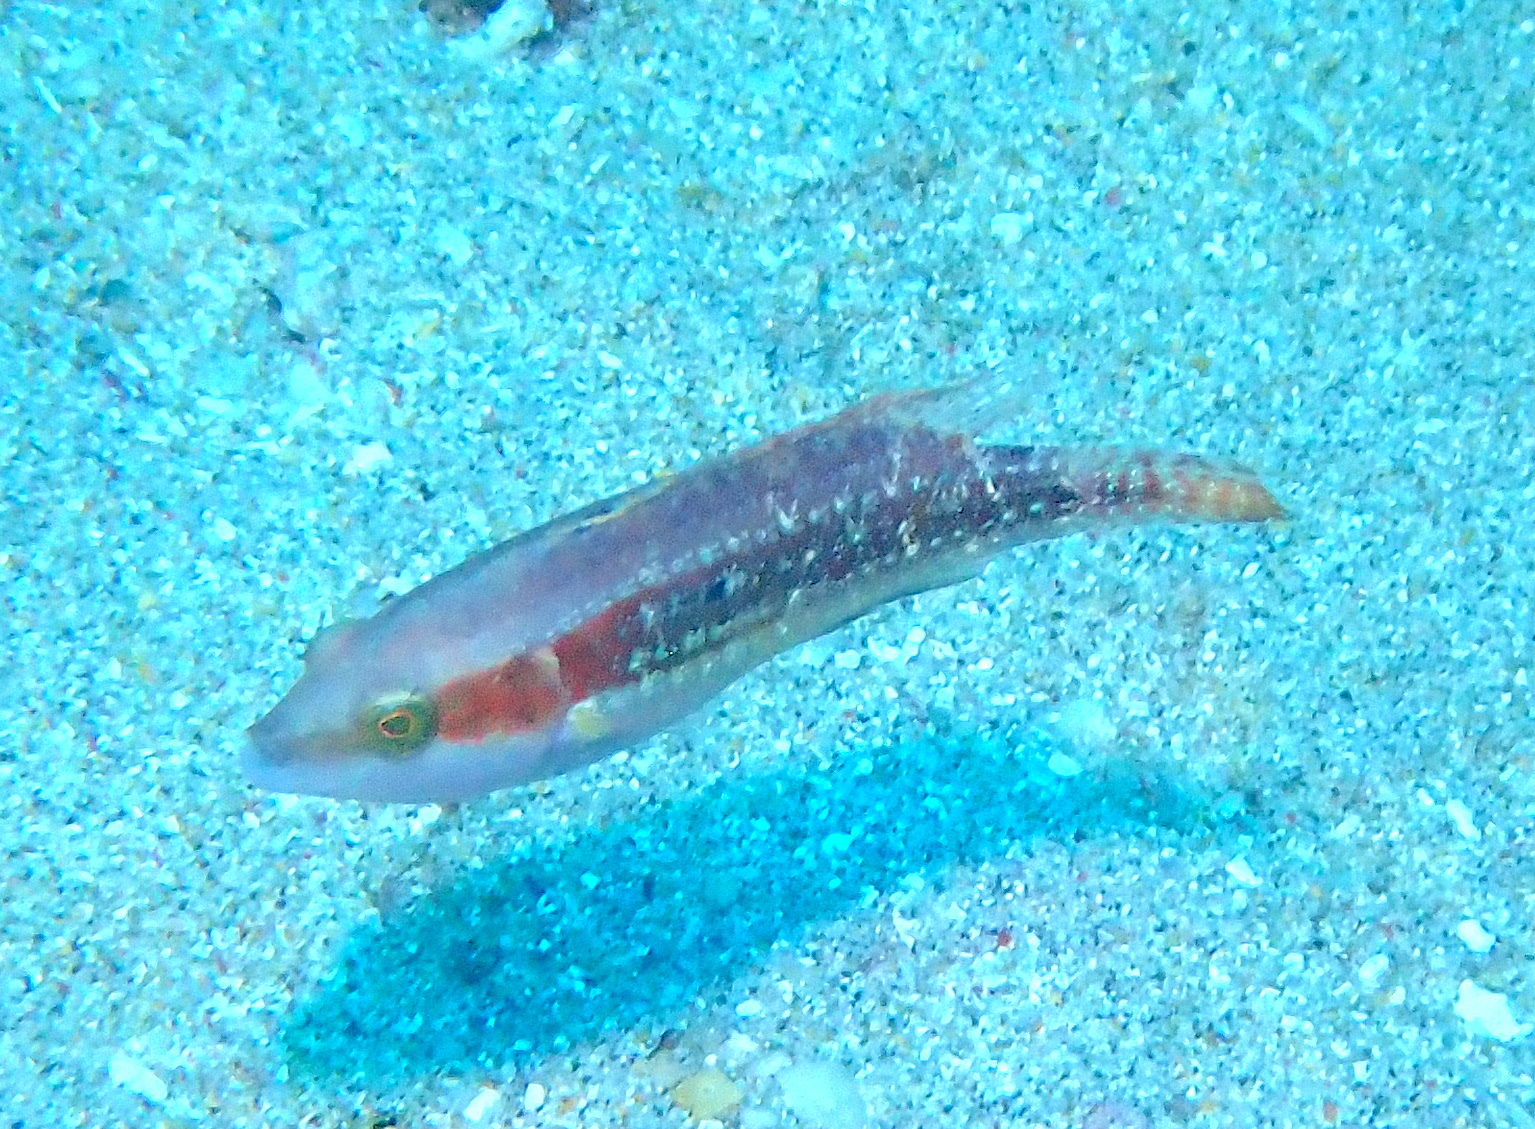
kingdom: Animalia
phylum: Chordata
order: Perciformes
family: Labridae
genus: Oxycheilinus
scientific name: Oxycheilinus bimaculatus
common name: Comettailed wrasse
